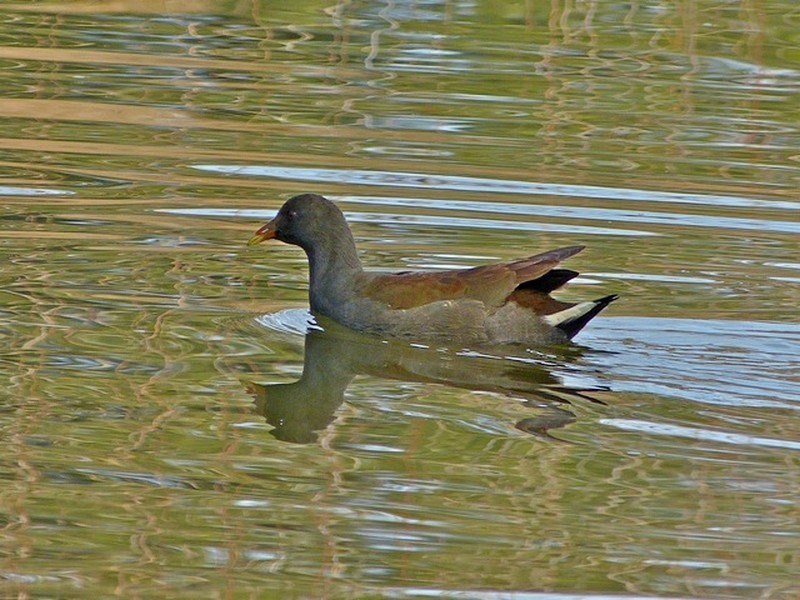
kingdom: Animalia
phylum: Chordata
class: Aves
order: Gruiformes
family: Rallidae
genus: Gallinula
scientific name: Gallinula tenebrosa
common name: Dusky moorhen
